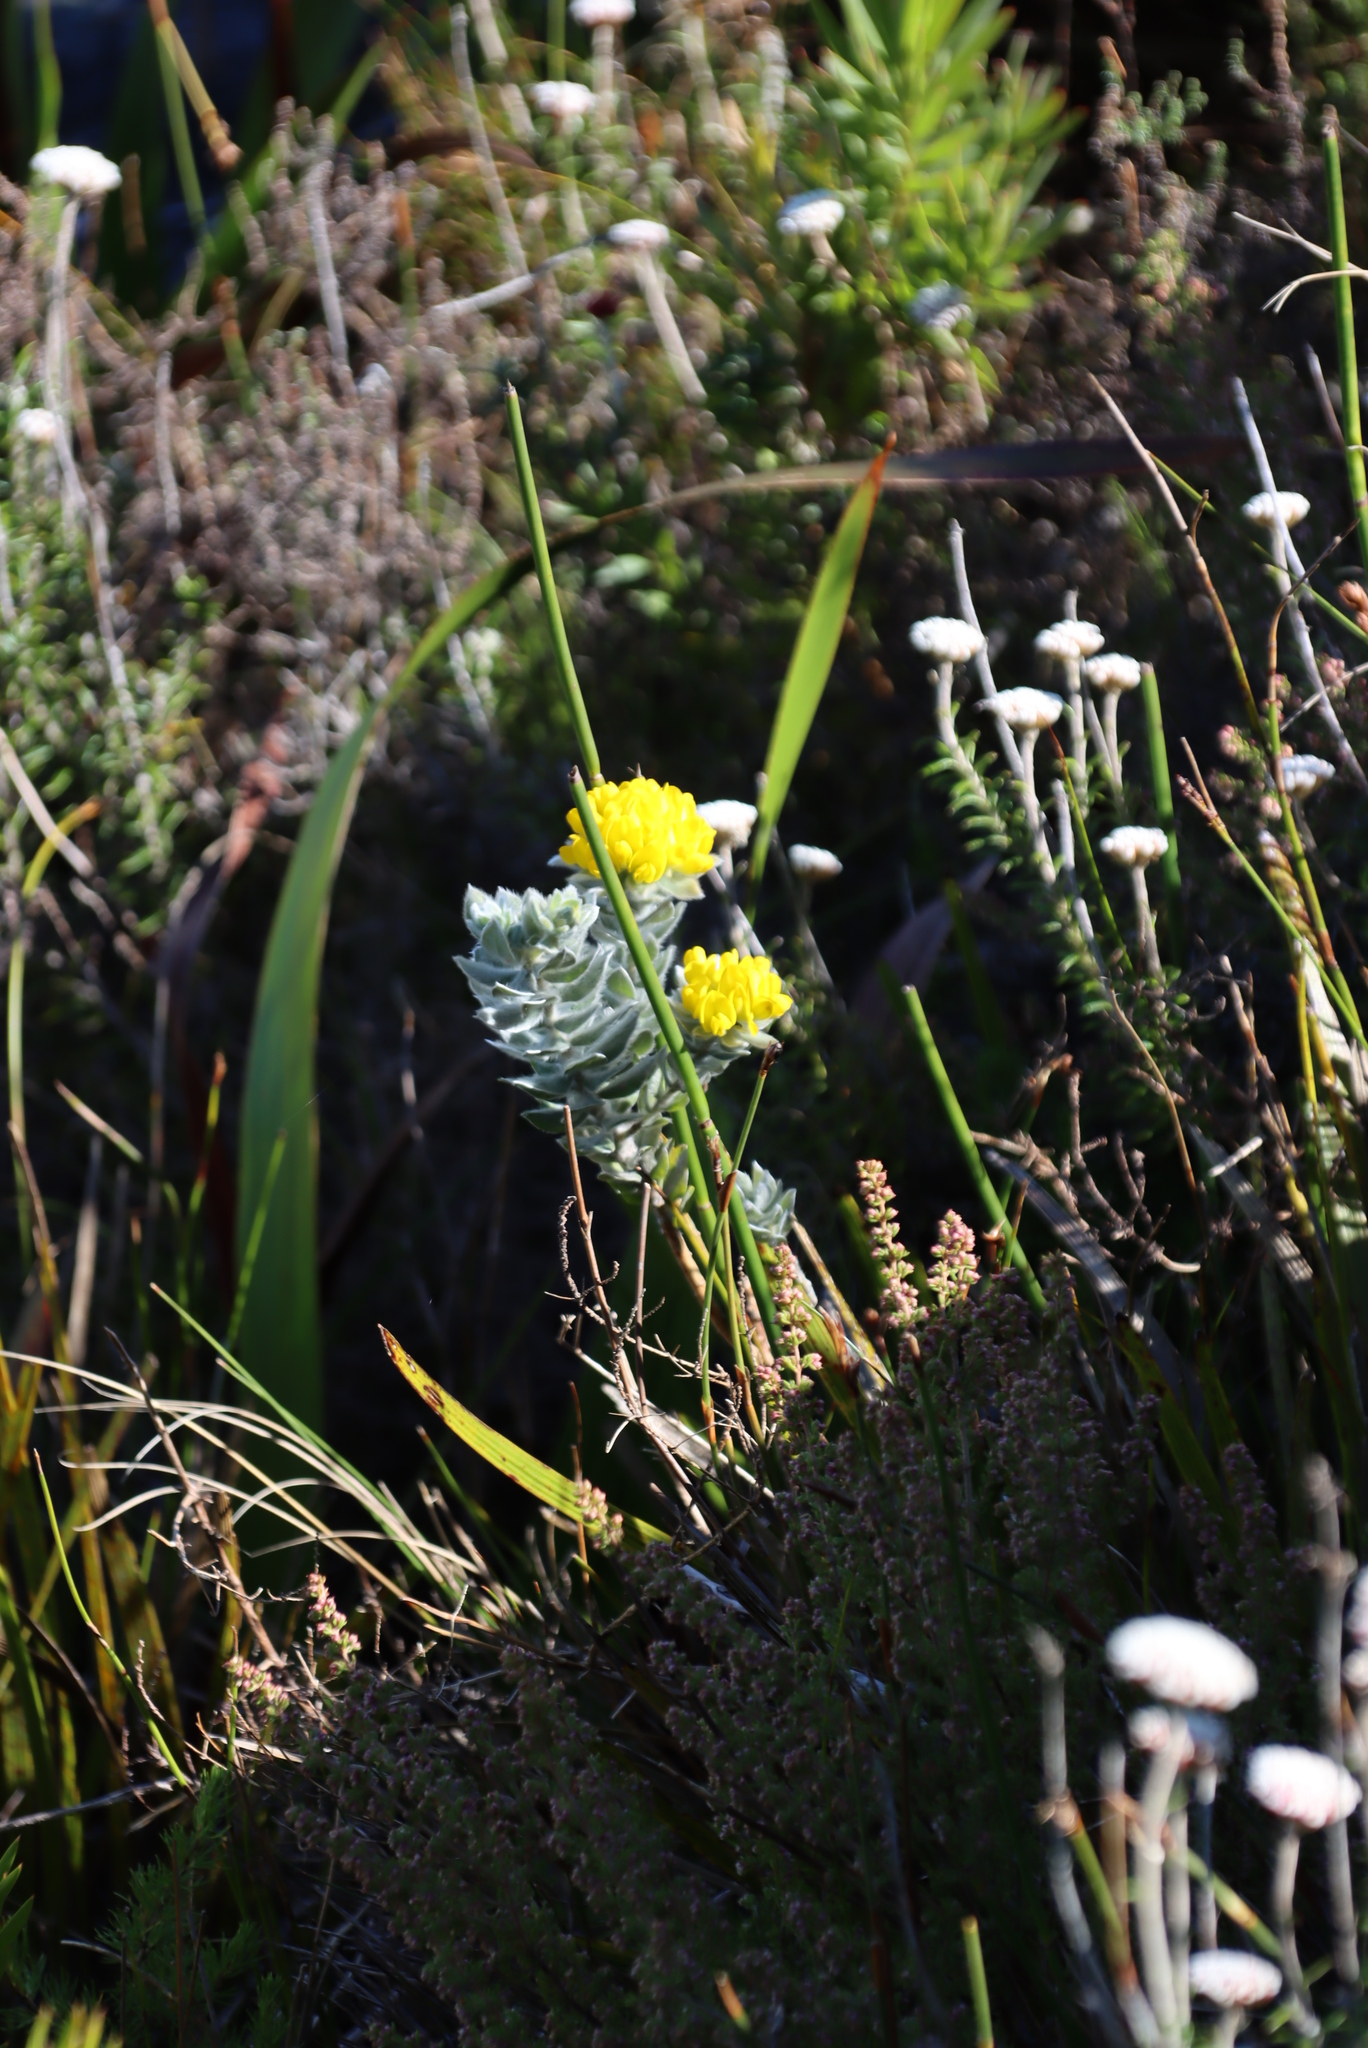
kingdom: Plantae
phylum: Tracheophyta
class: Magnoliopsida
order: Fabales
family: Fabaceae
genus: Xiphotheca
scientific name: Xiphotheca fruticosa
